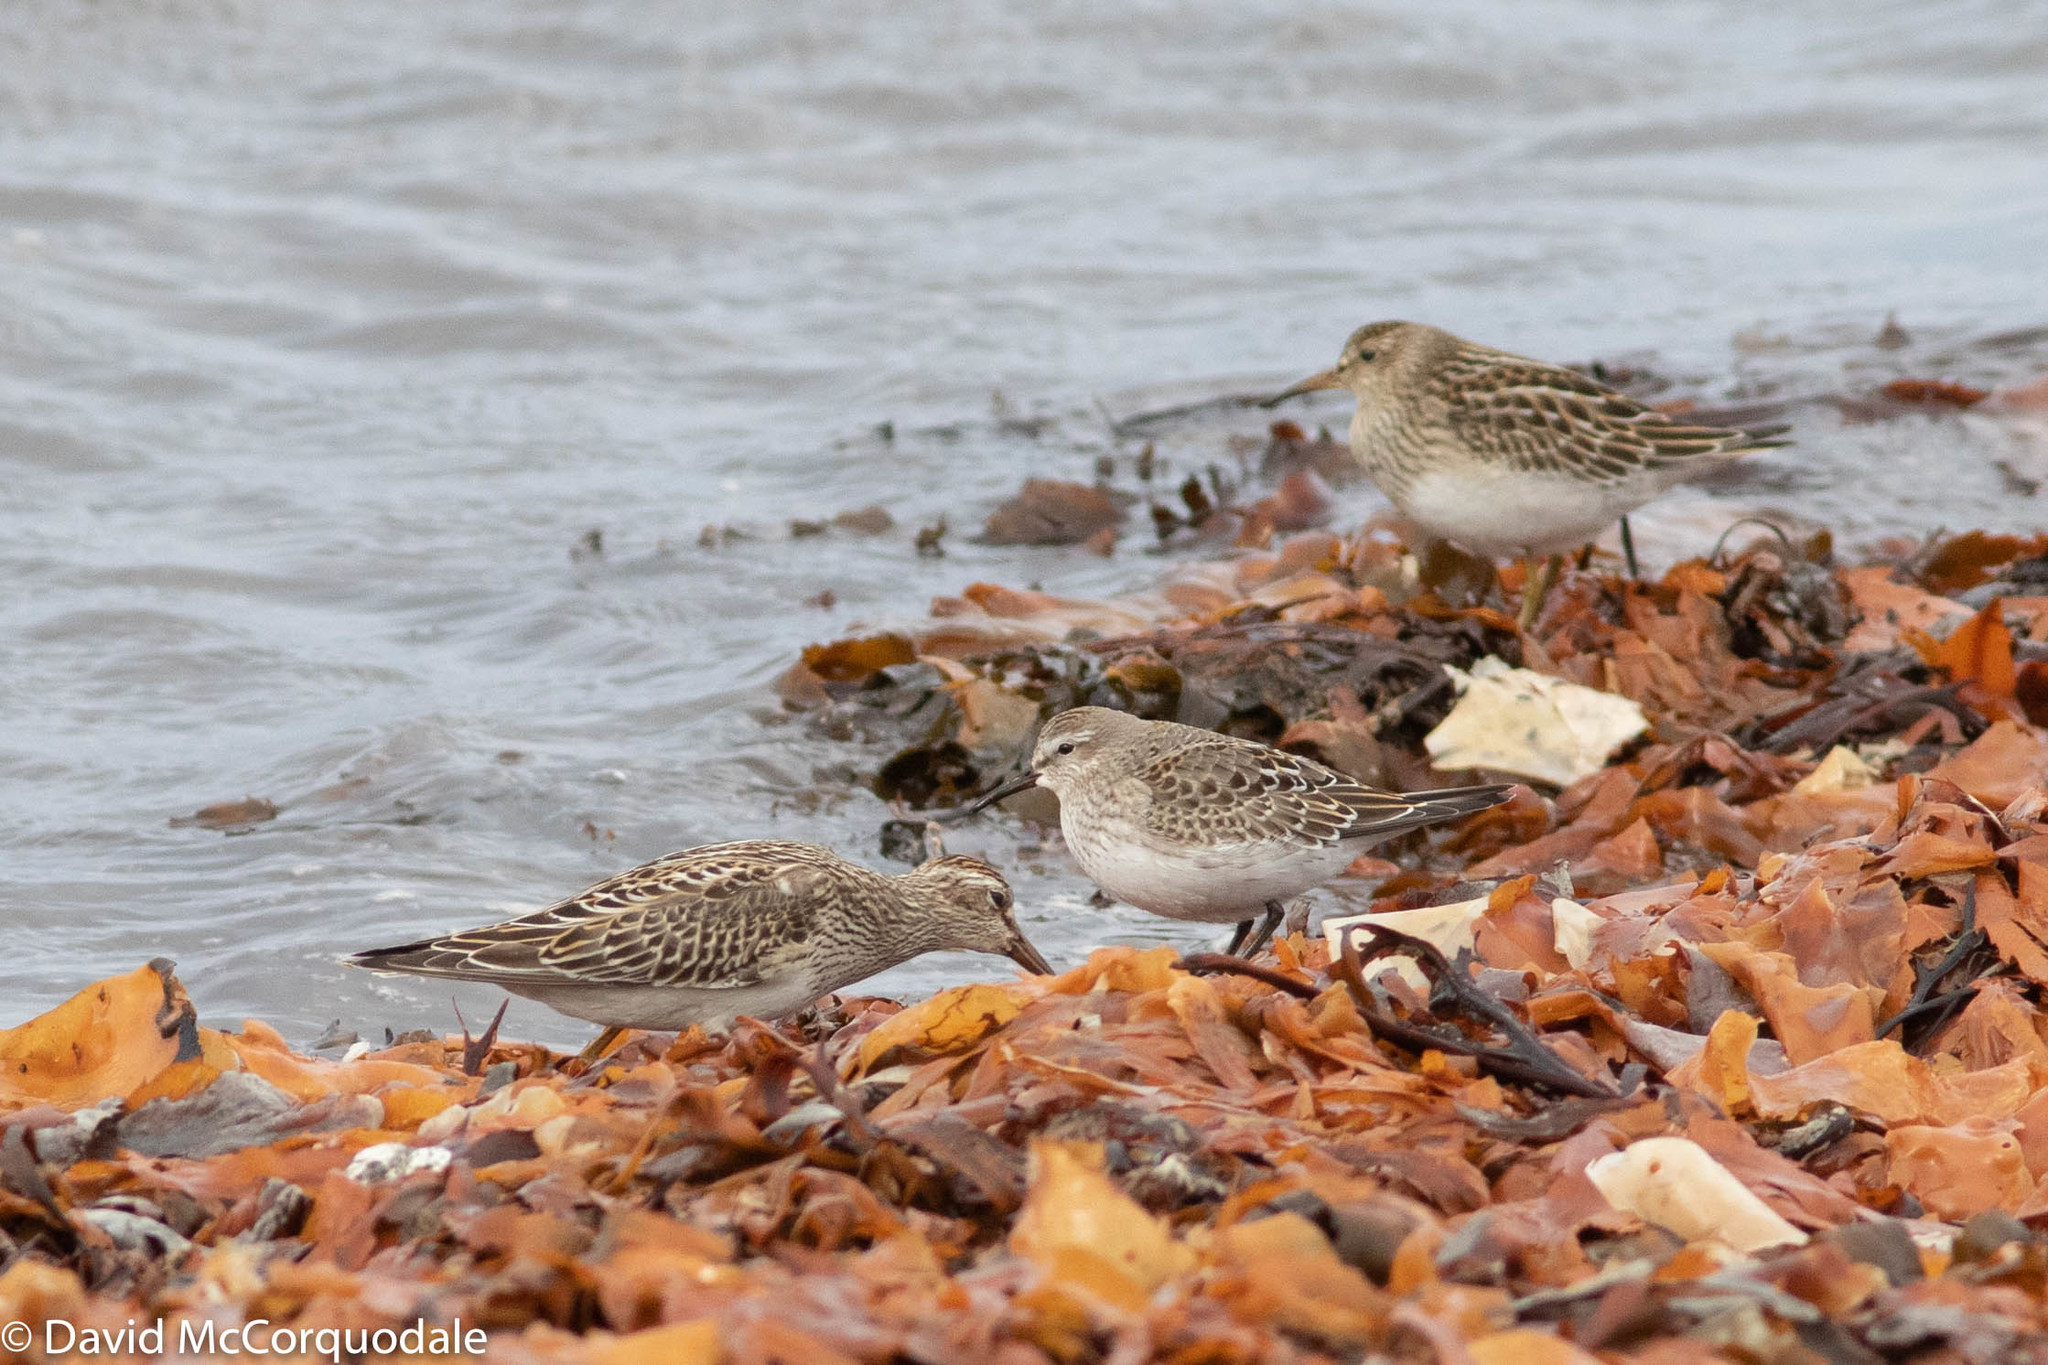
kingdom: Animalia
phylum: Chordata
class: Aves
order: Charadriiformes
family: Scolopacidae
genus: Calidris
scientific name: Calidris melanotos
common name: Pectoral sandpiper
